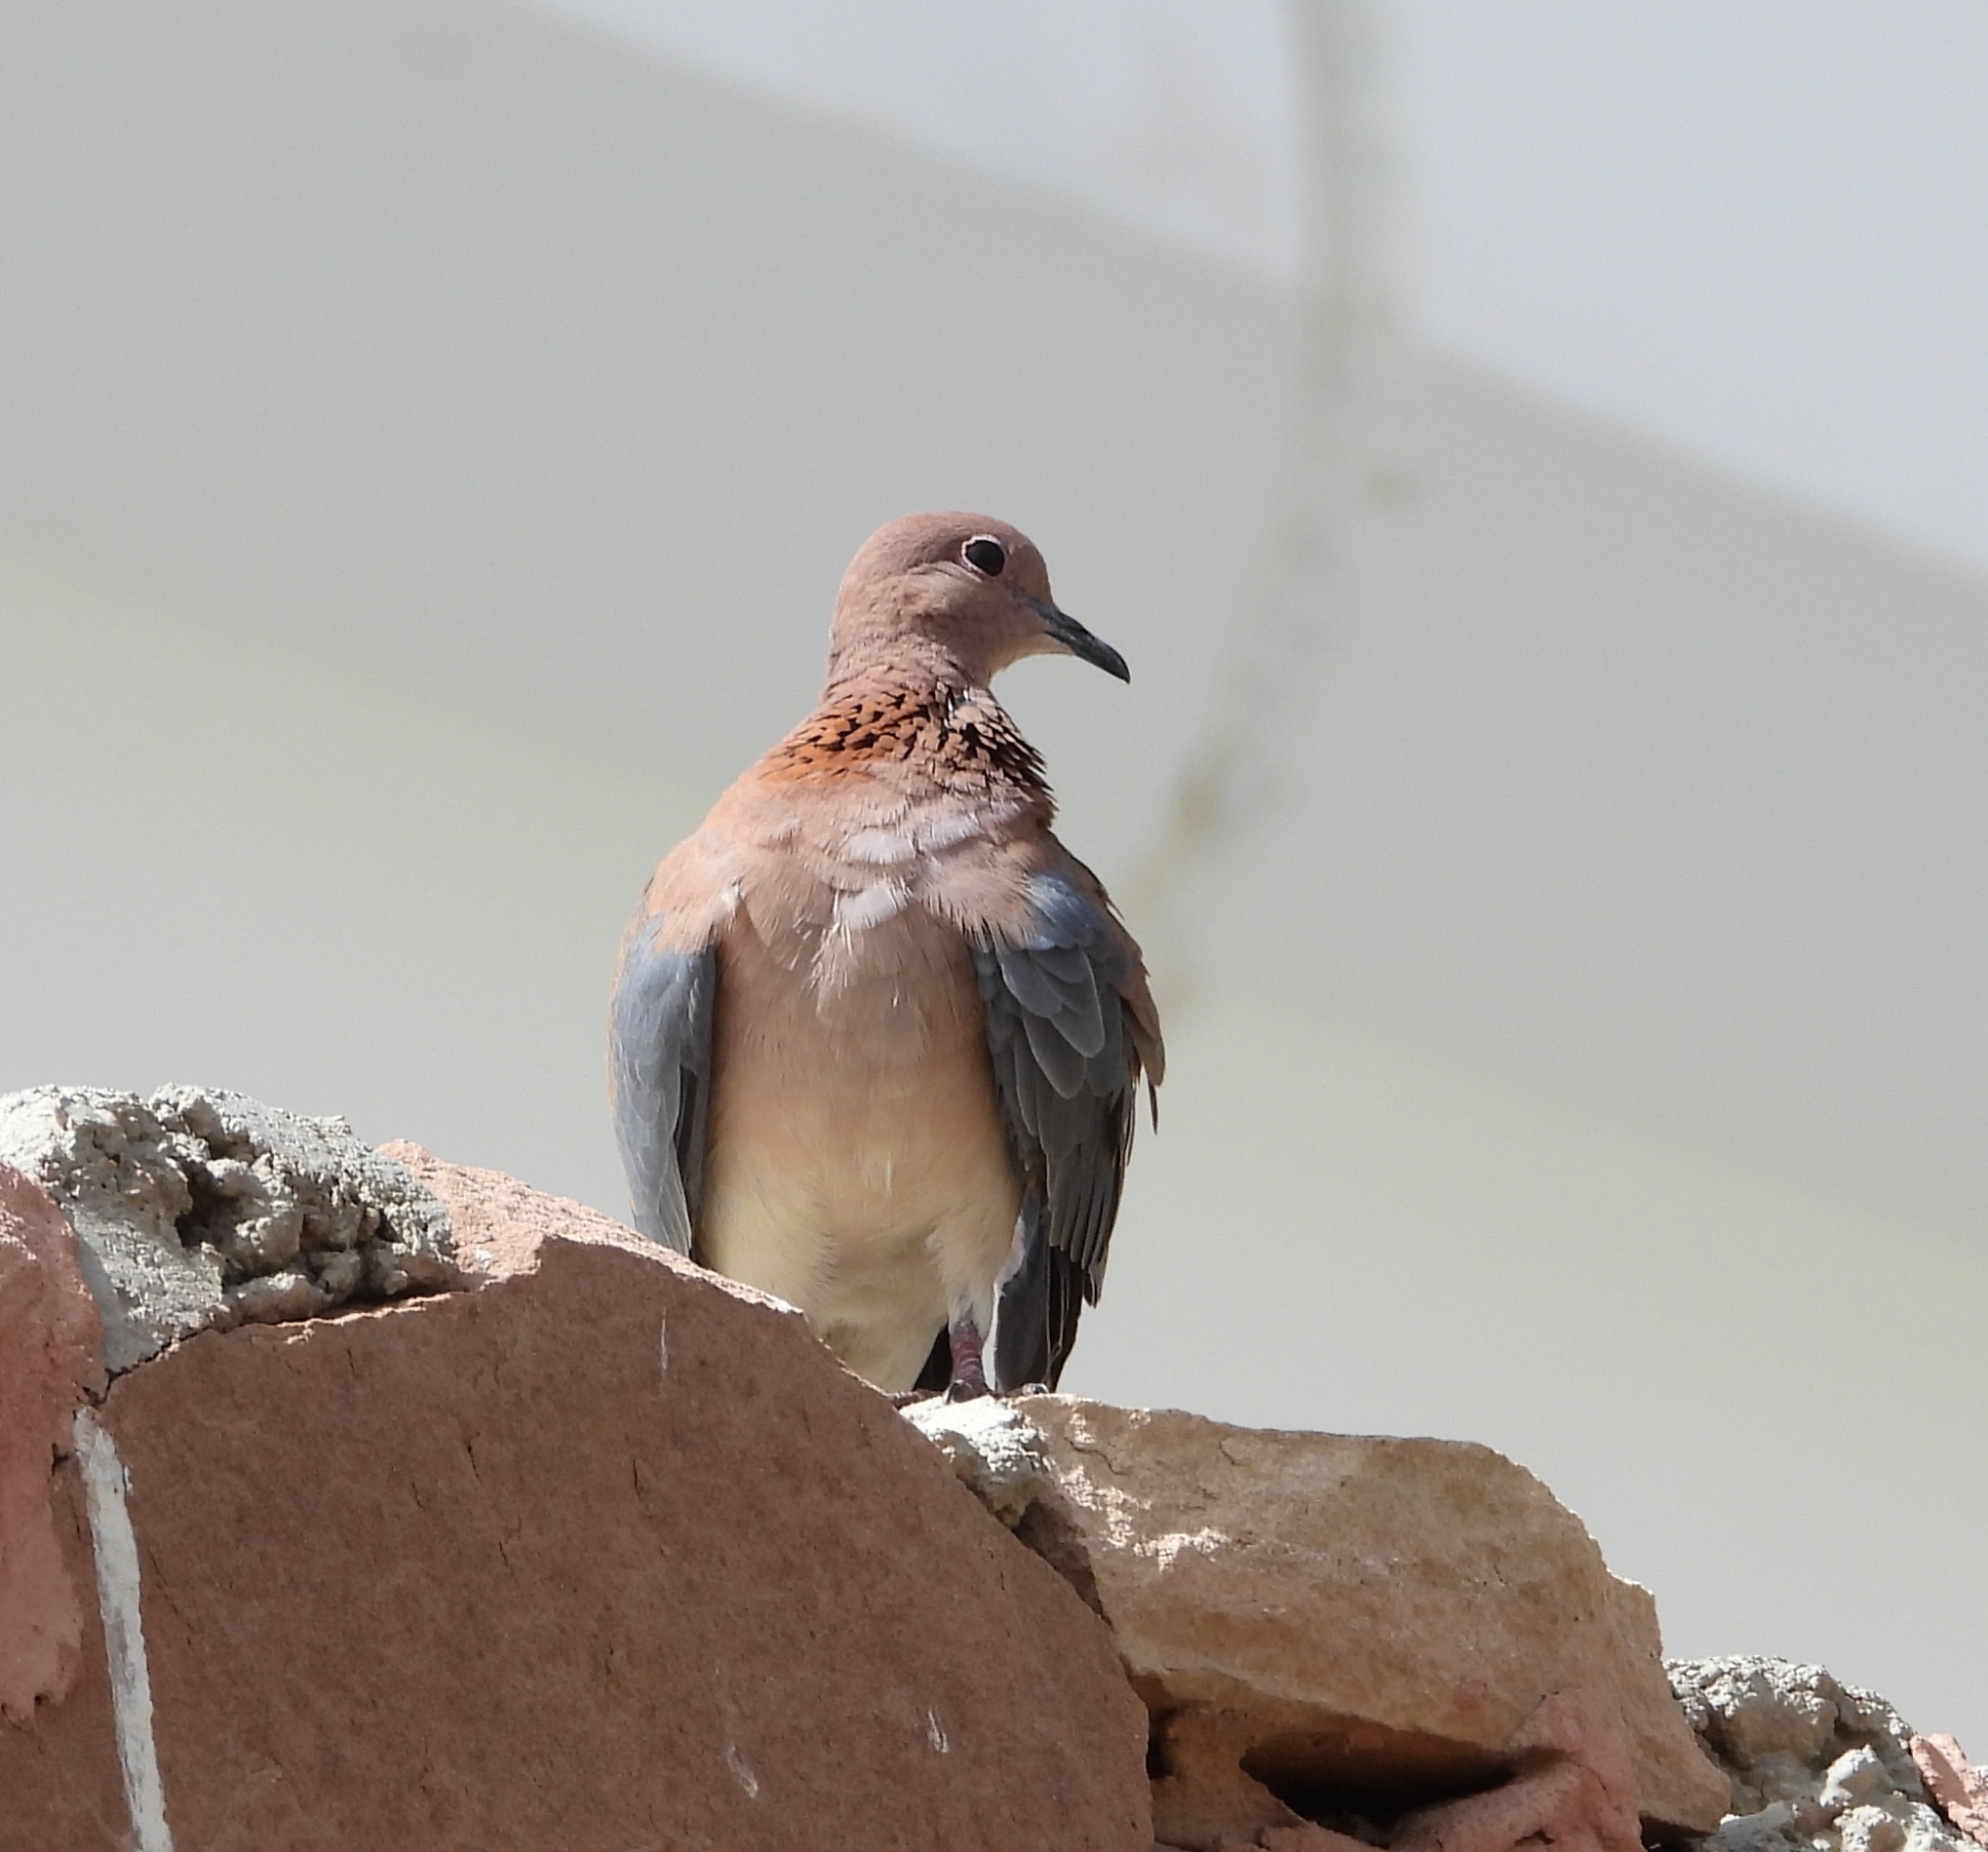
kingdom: Animalia
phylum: Chordata
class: Aves
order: Columbiformes
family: Columbidae
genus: Spilopelia
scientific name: Spilopelia senegalensis
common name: Laughing dove
